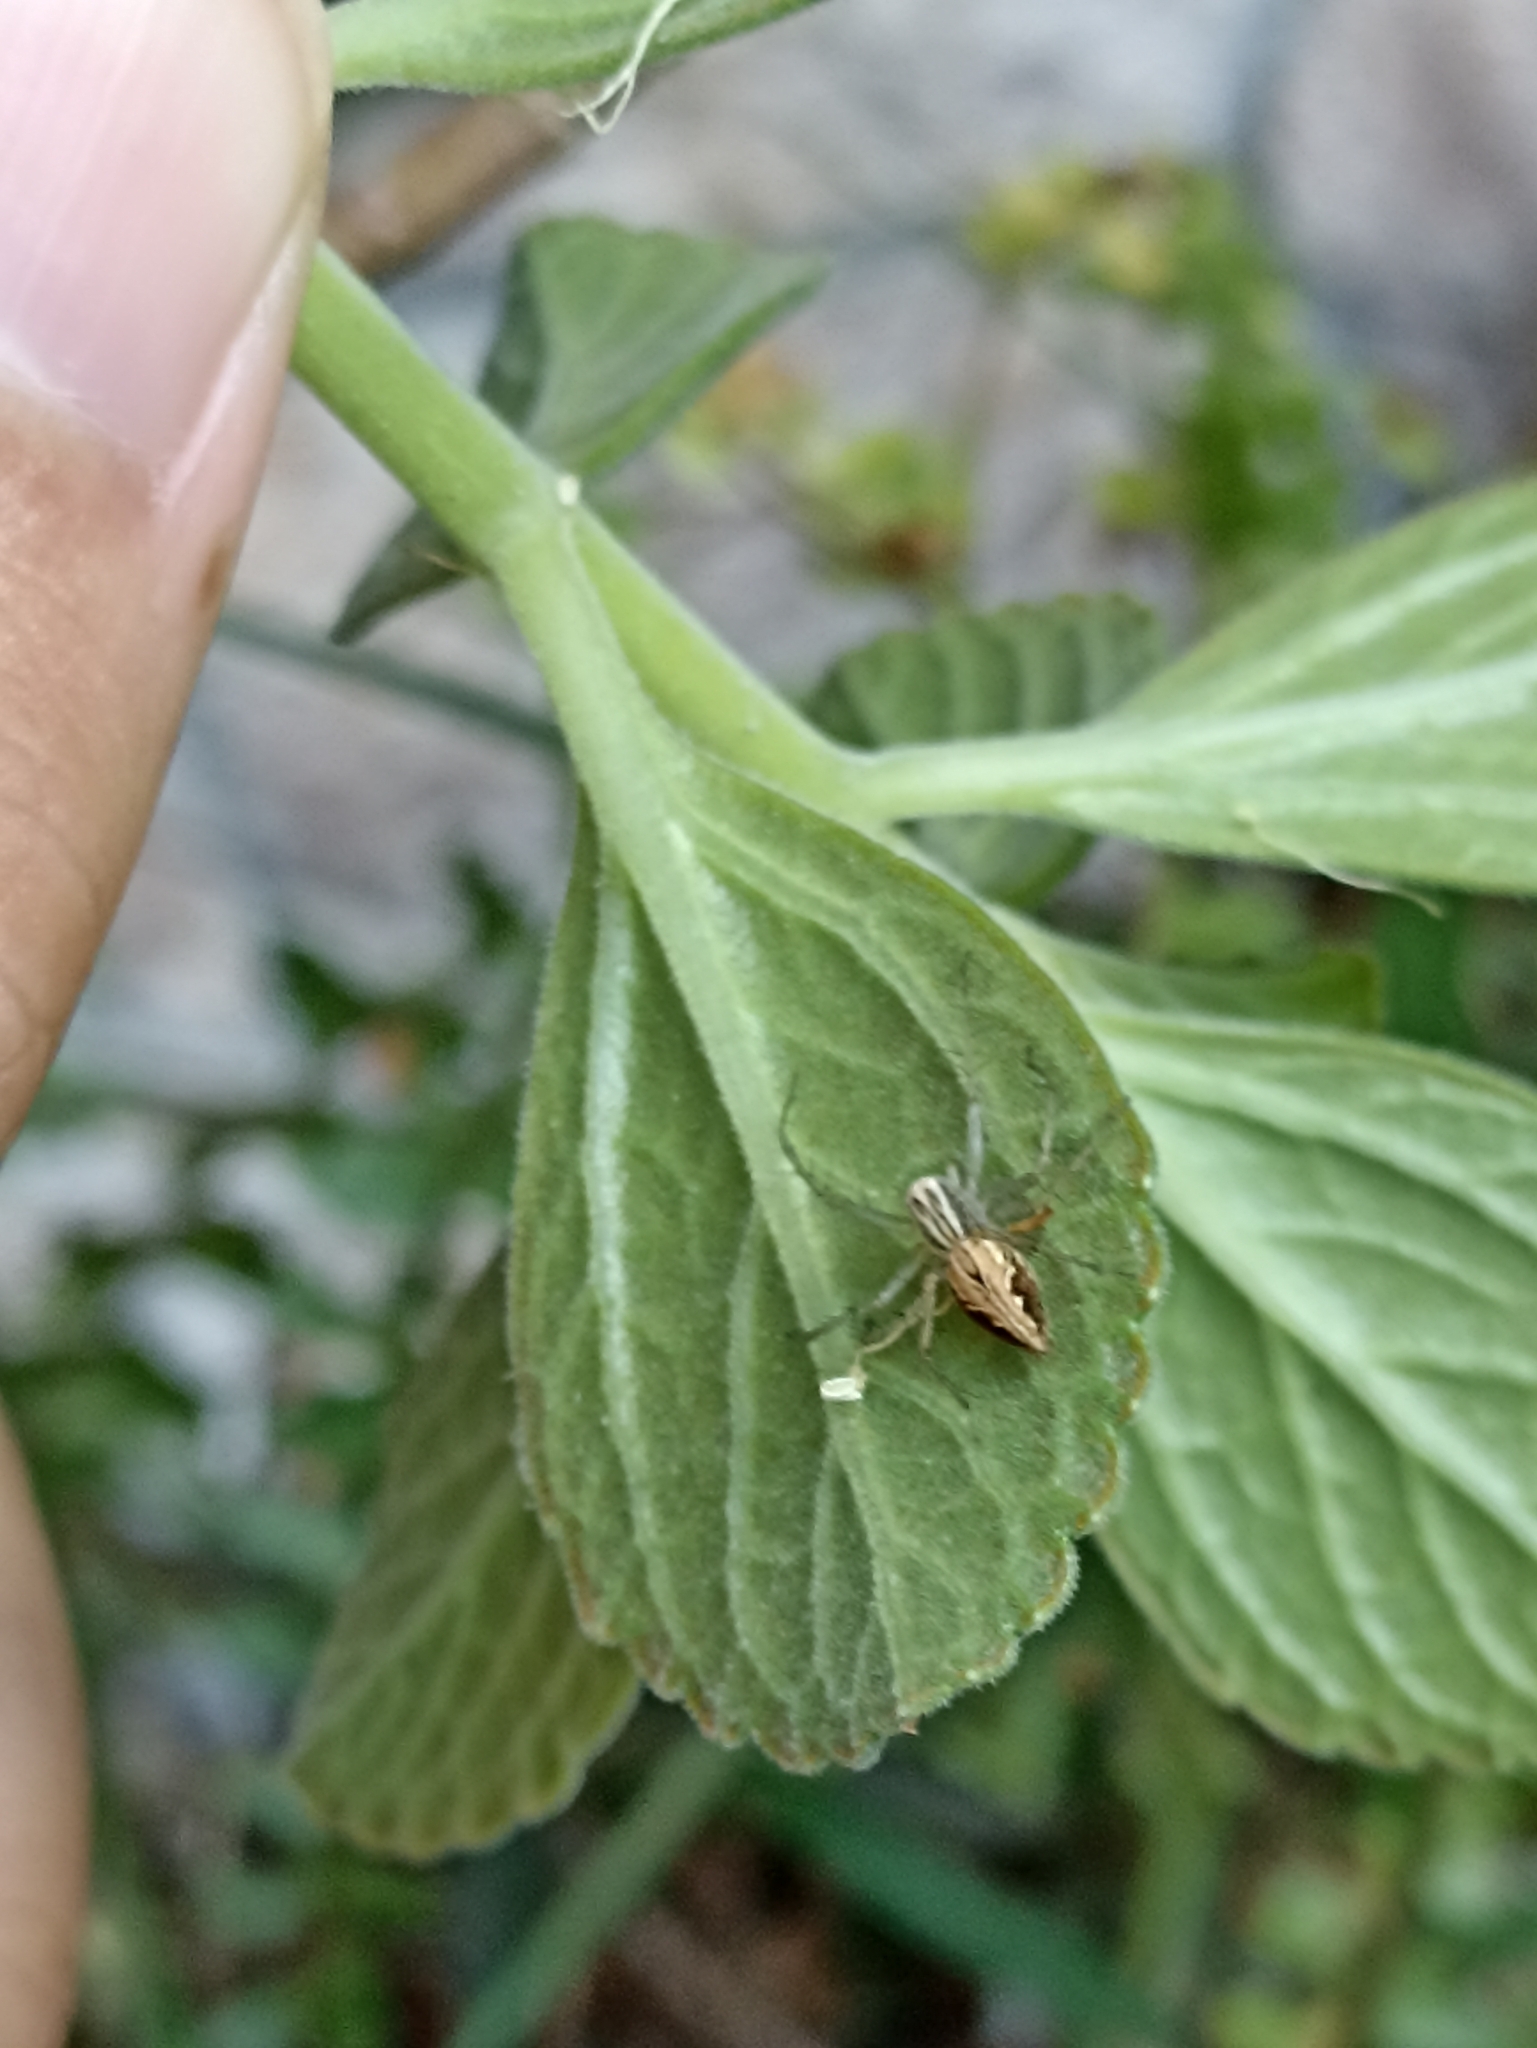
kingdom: Animalia
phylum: Arthropoda
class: Arachnida
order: Araneae
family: Oxyopidae
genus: Oxyopes
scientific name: Oxyopes salticus
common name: Lynx spiders
